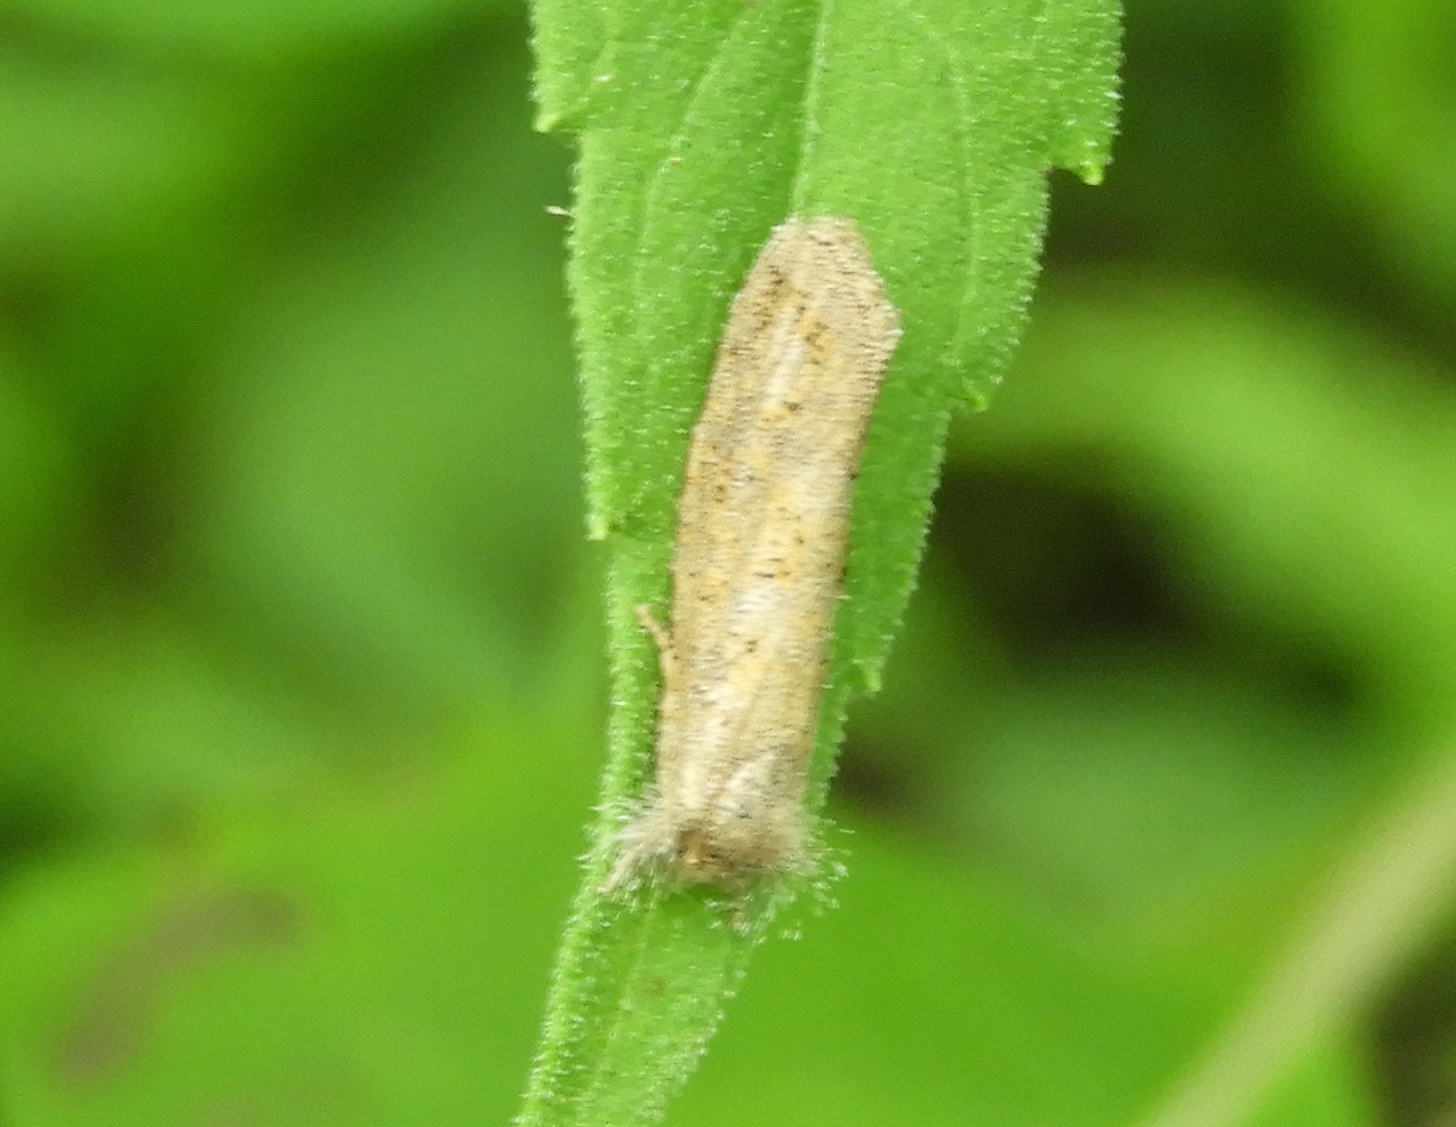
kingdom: Animalia
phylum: Arthropoda
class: Insecta
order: Lepidoptera
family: Tineidae
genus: Acrolophus
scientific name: Acrolophus
